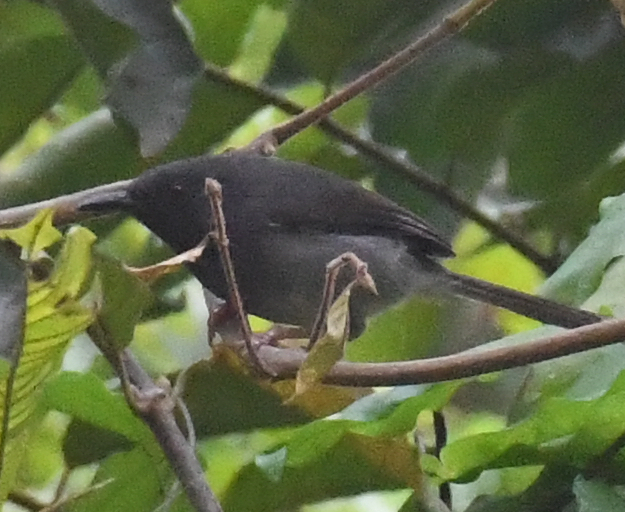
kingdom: Animalia
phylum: Chordata
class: Aves
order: Passeriformes
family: Cisticolidae
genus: Apalis
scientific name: Apalis sharpii
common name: Sharpe's apalis
